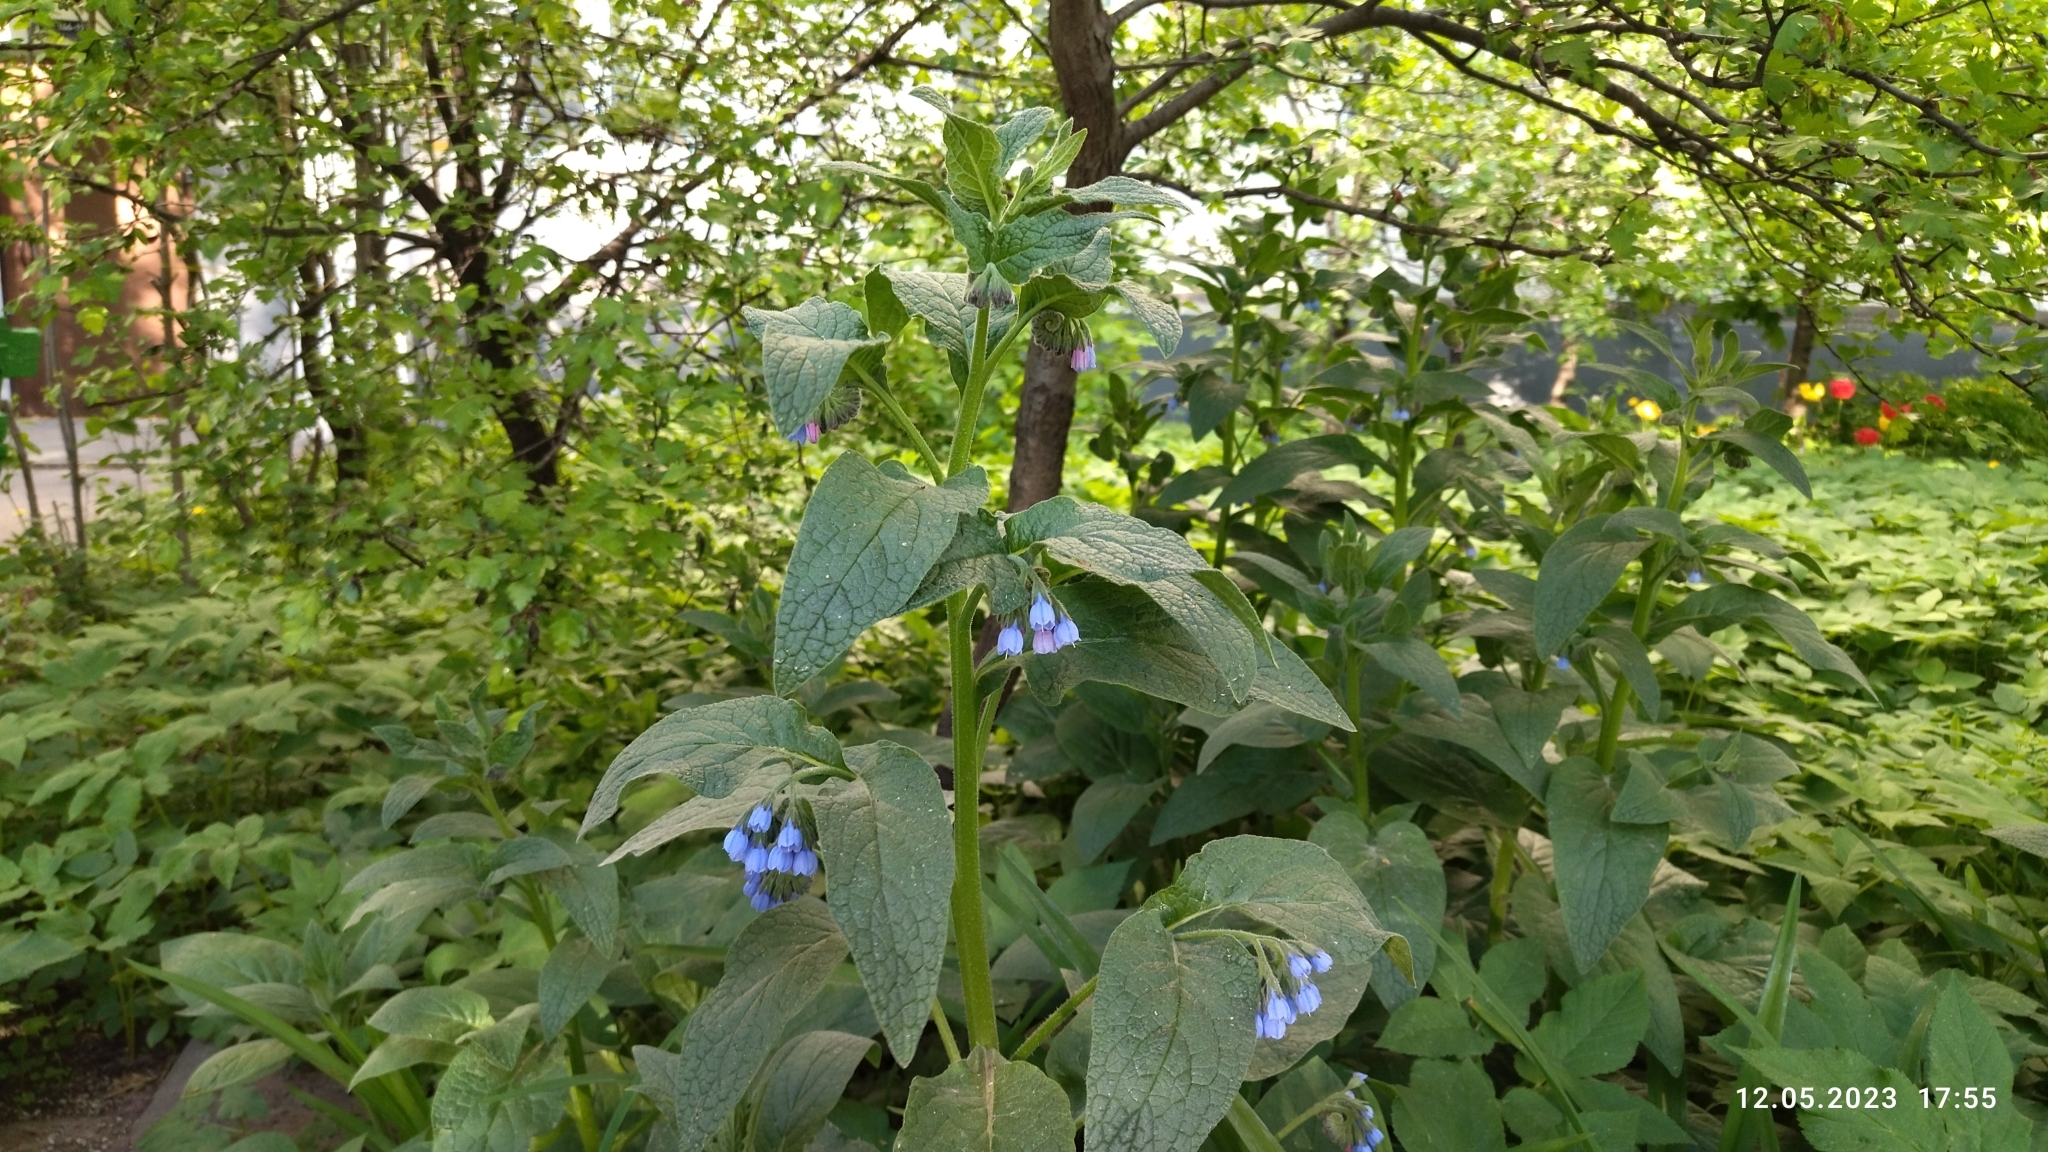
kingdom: Plantae
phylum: Tracheophyta
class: Magnoliopsida
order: Boraginales
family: Boraginaceae
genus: Symphytum
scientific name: Symphytum caucasicum
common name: Caucasian comfrey
